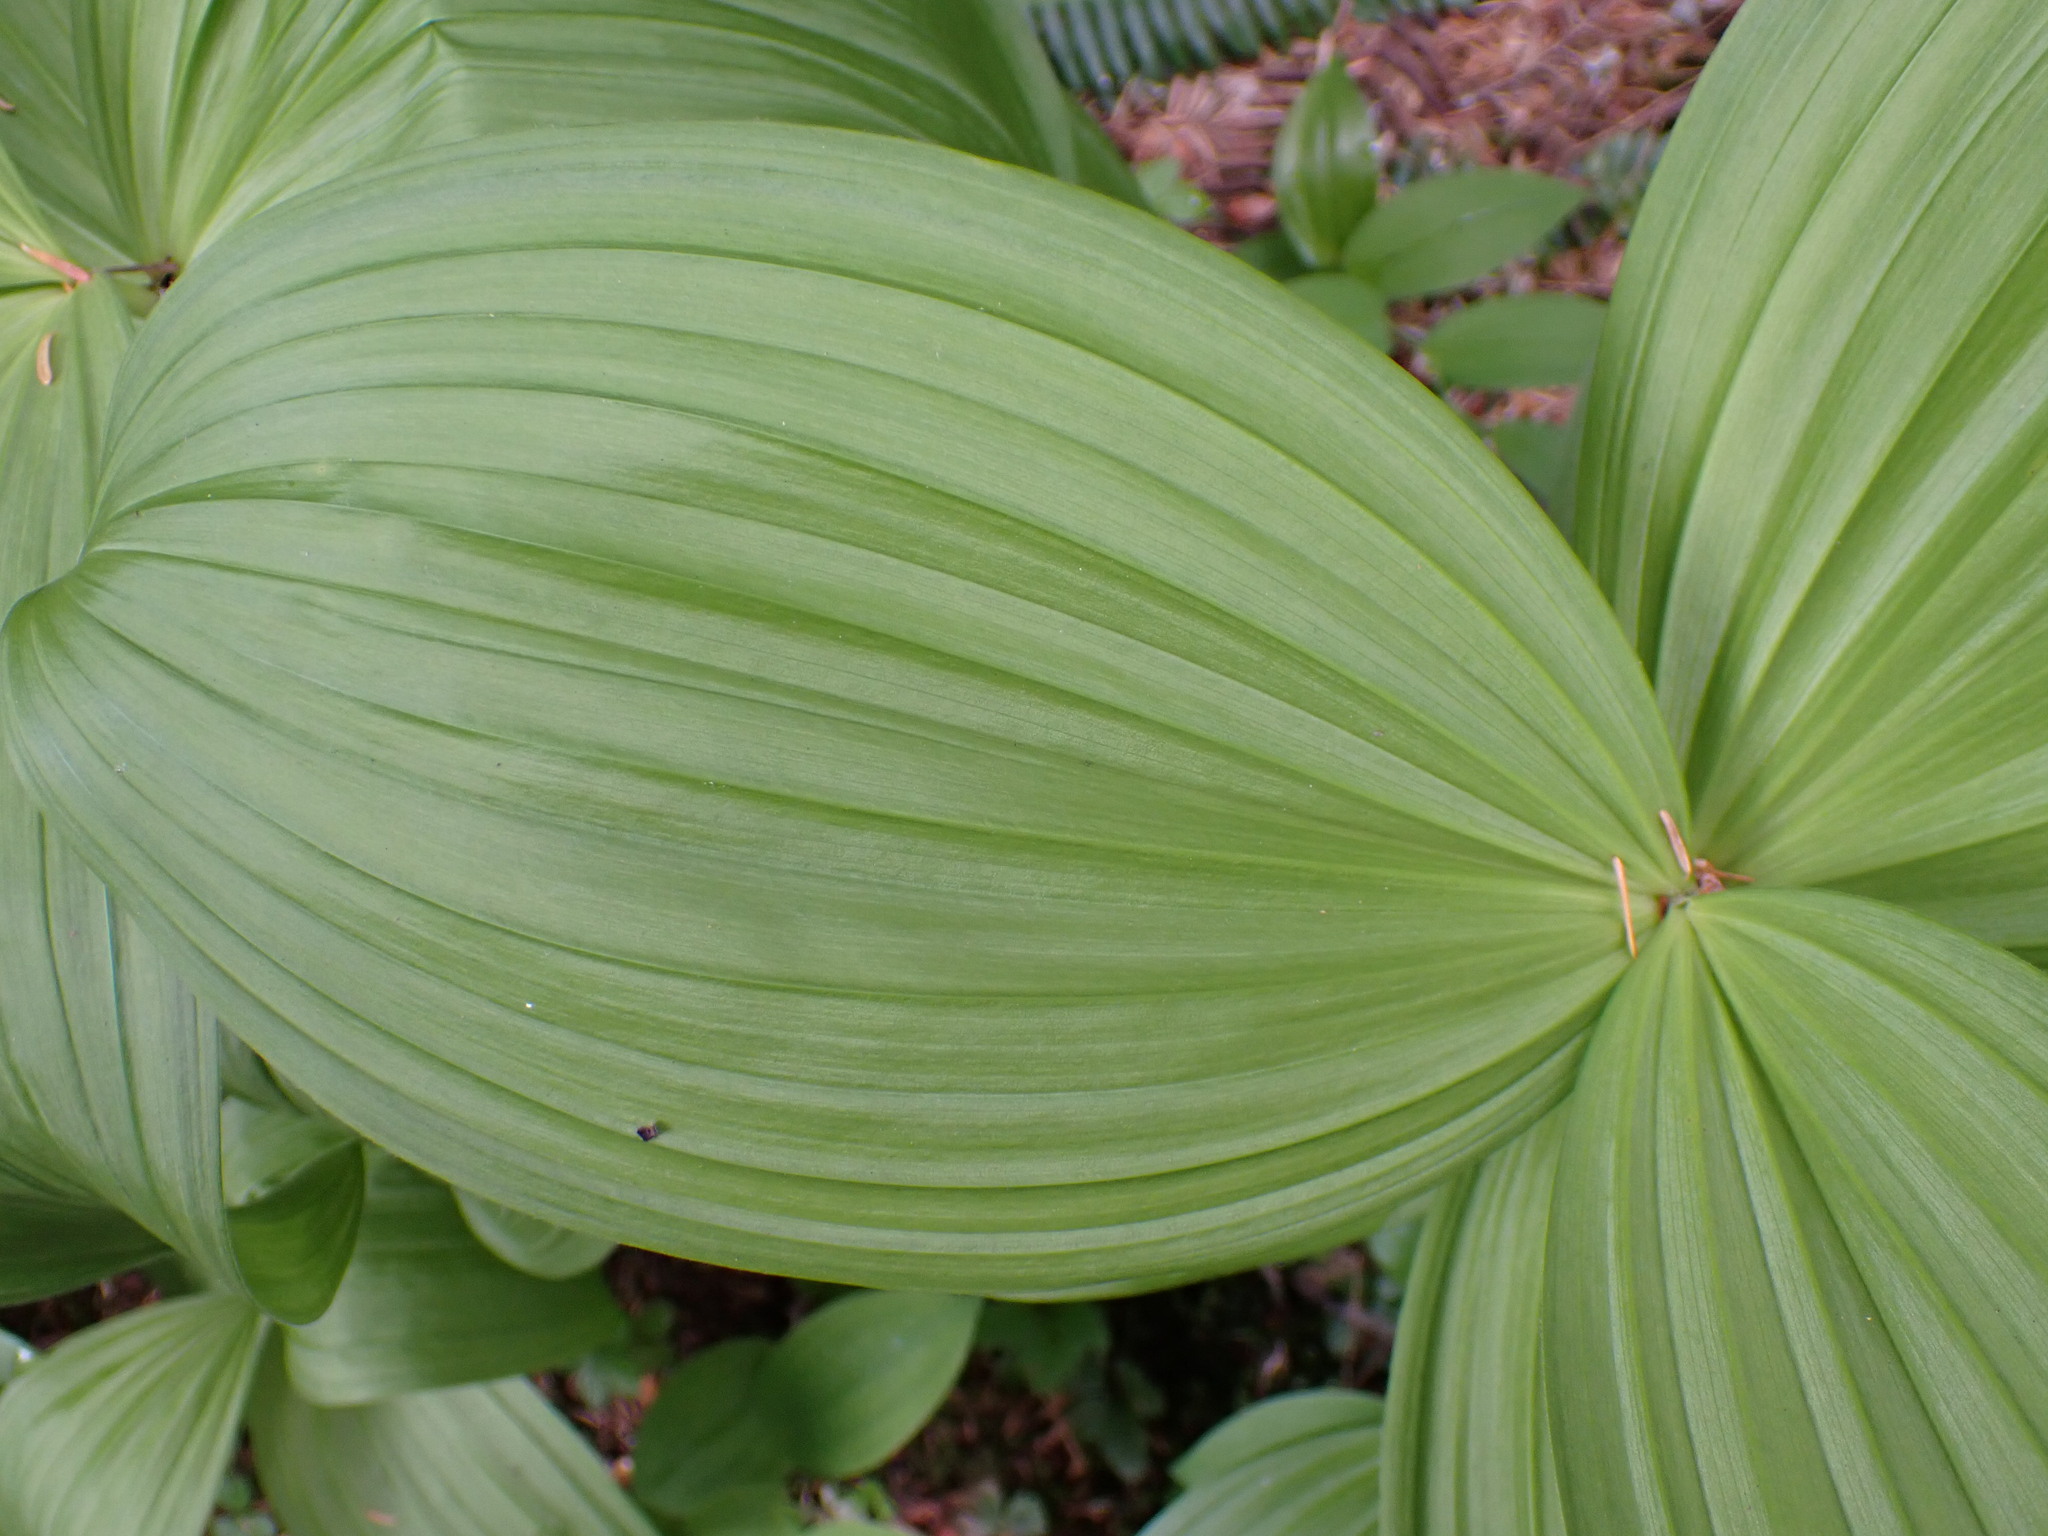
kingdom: Plantae
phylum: Tracheophyta
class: Liliopsida
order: Liliales
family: Melanthiaceae
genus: Veratrum
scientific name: Veratrum viride
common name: American false hellebore
